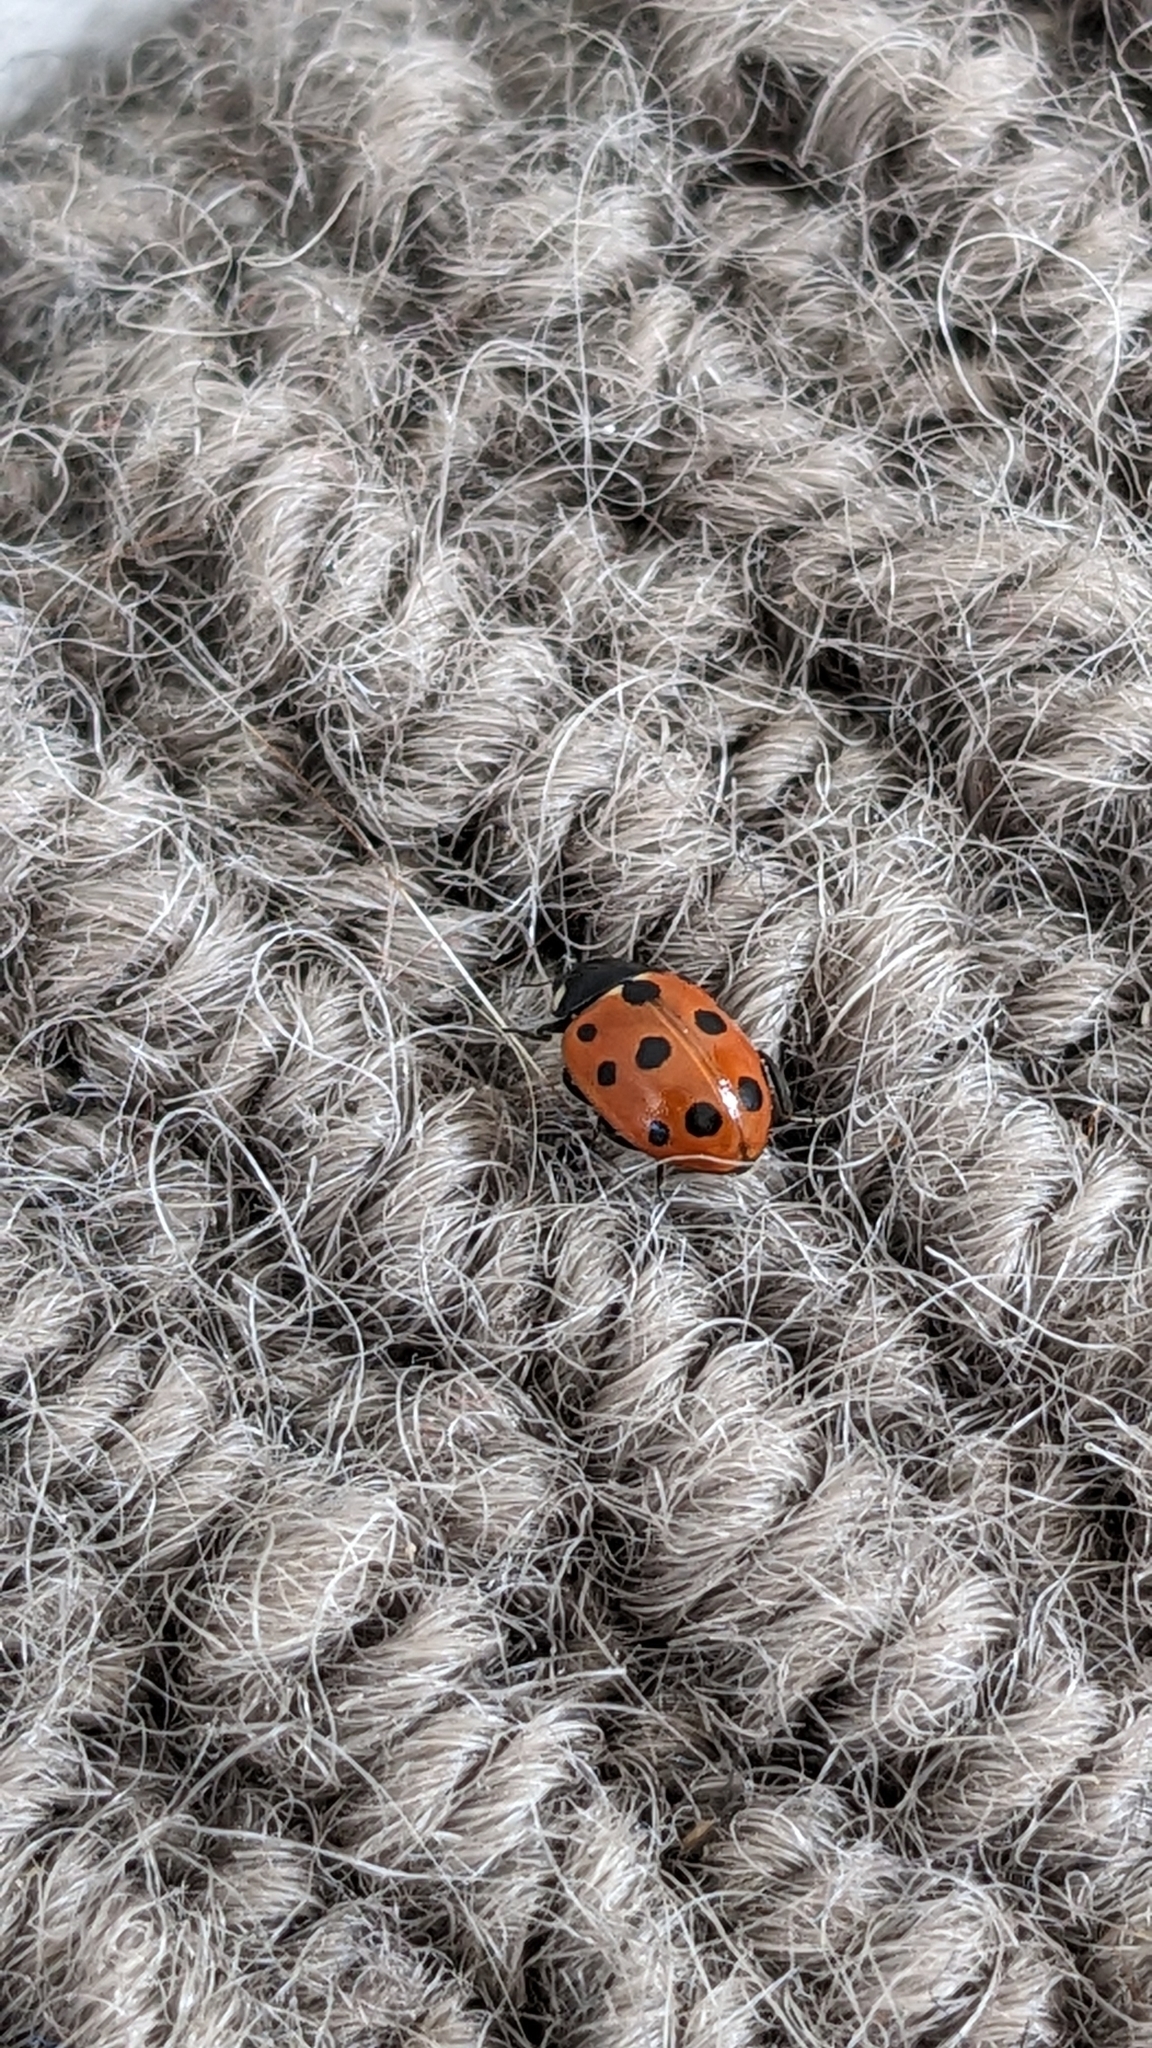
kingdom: Animalia
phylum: Arthropoda
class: Insecta
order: Coleoptera
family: Coccinellidae
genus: Coccinella
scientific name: Coccinella undecimpunctata
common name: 11-spot ladybird
